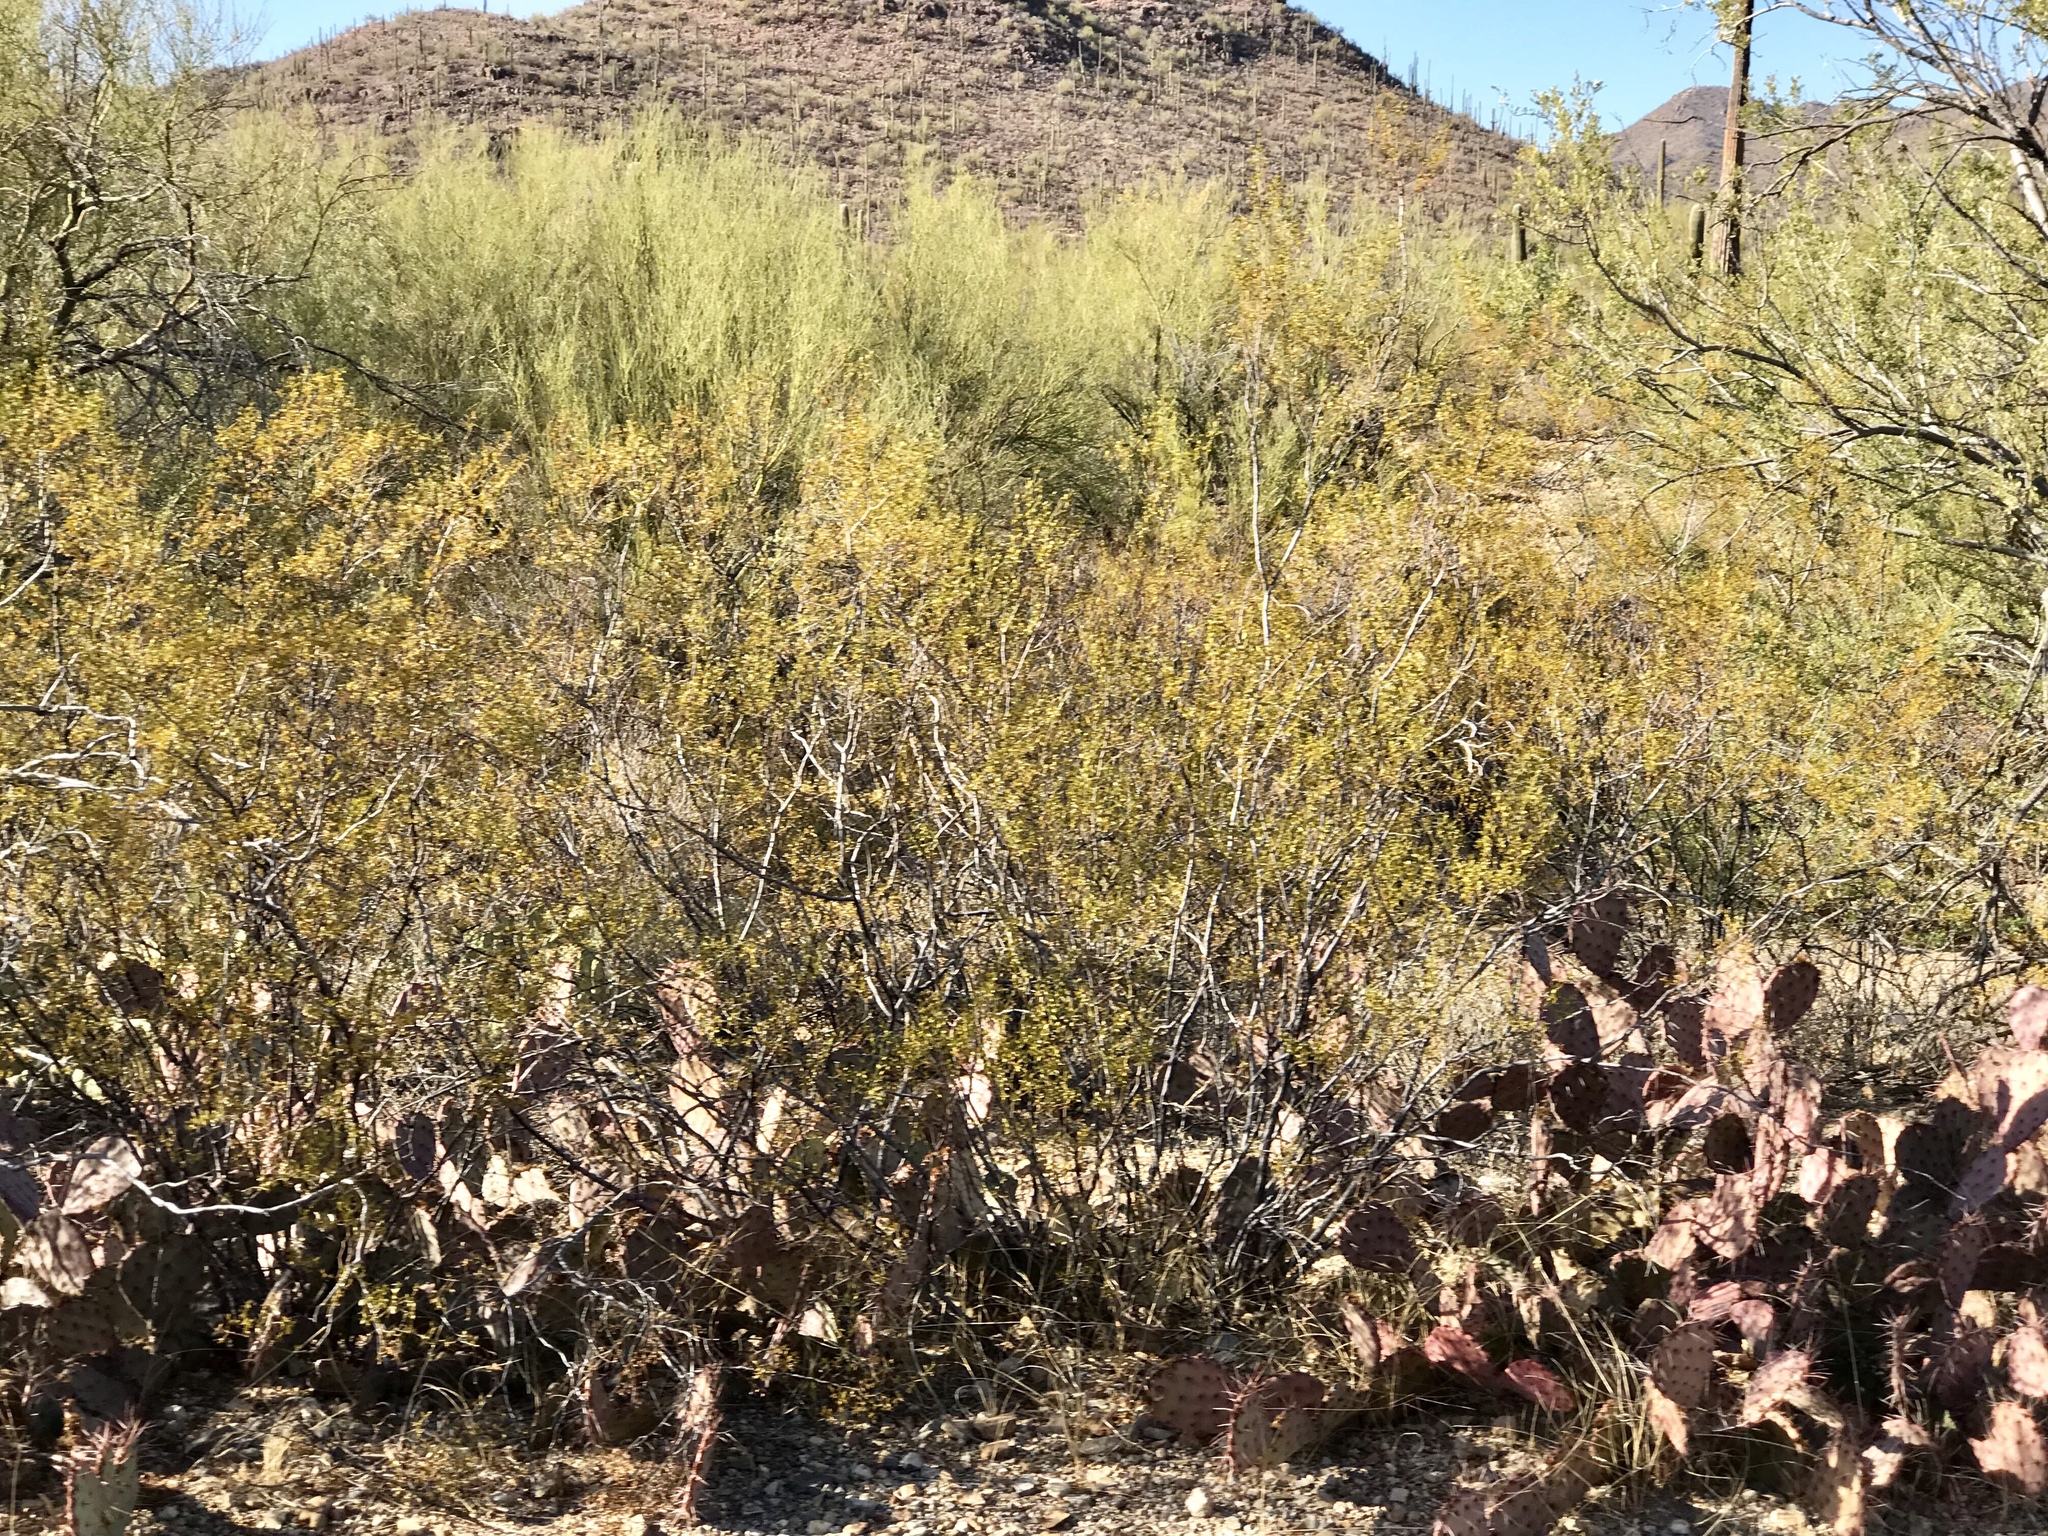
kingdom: Plantae
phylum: Tracheophyta
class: Magnoliopsida
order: Zygophyllales
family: Zygophyllaceae
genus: Larrea
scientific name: Larrea tridentata
